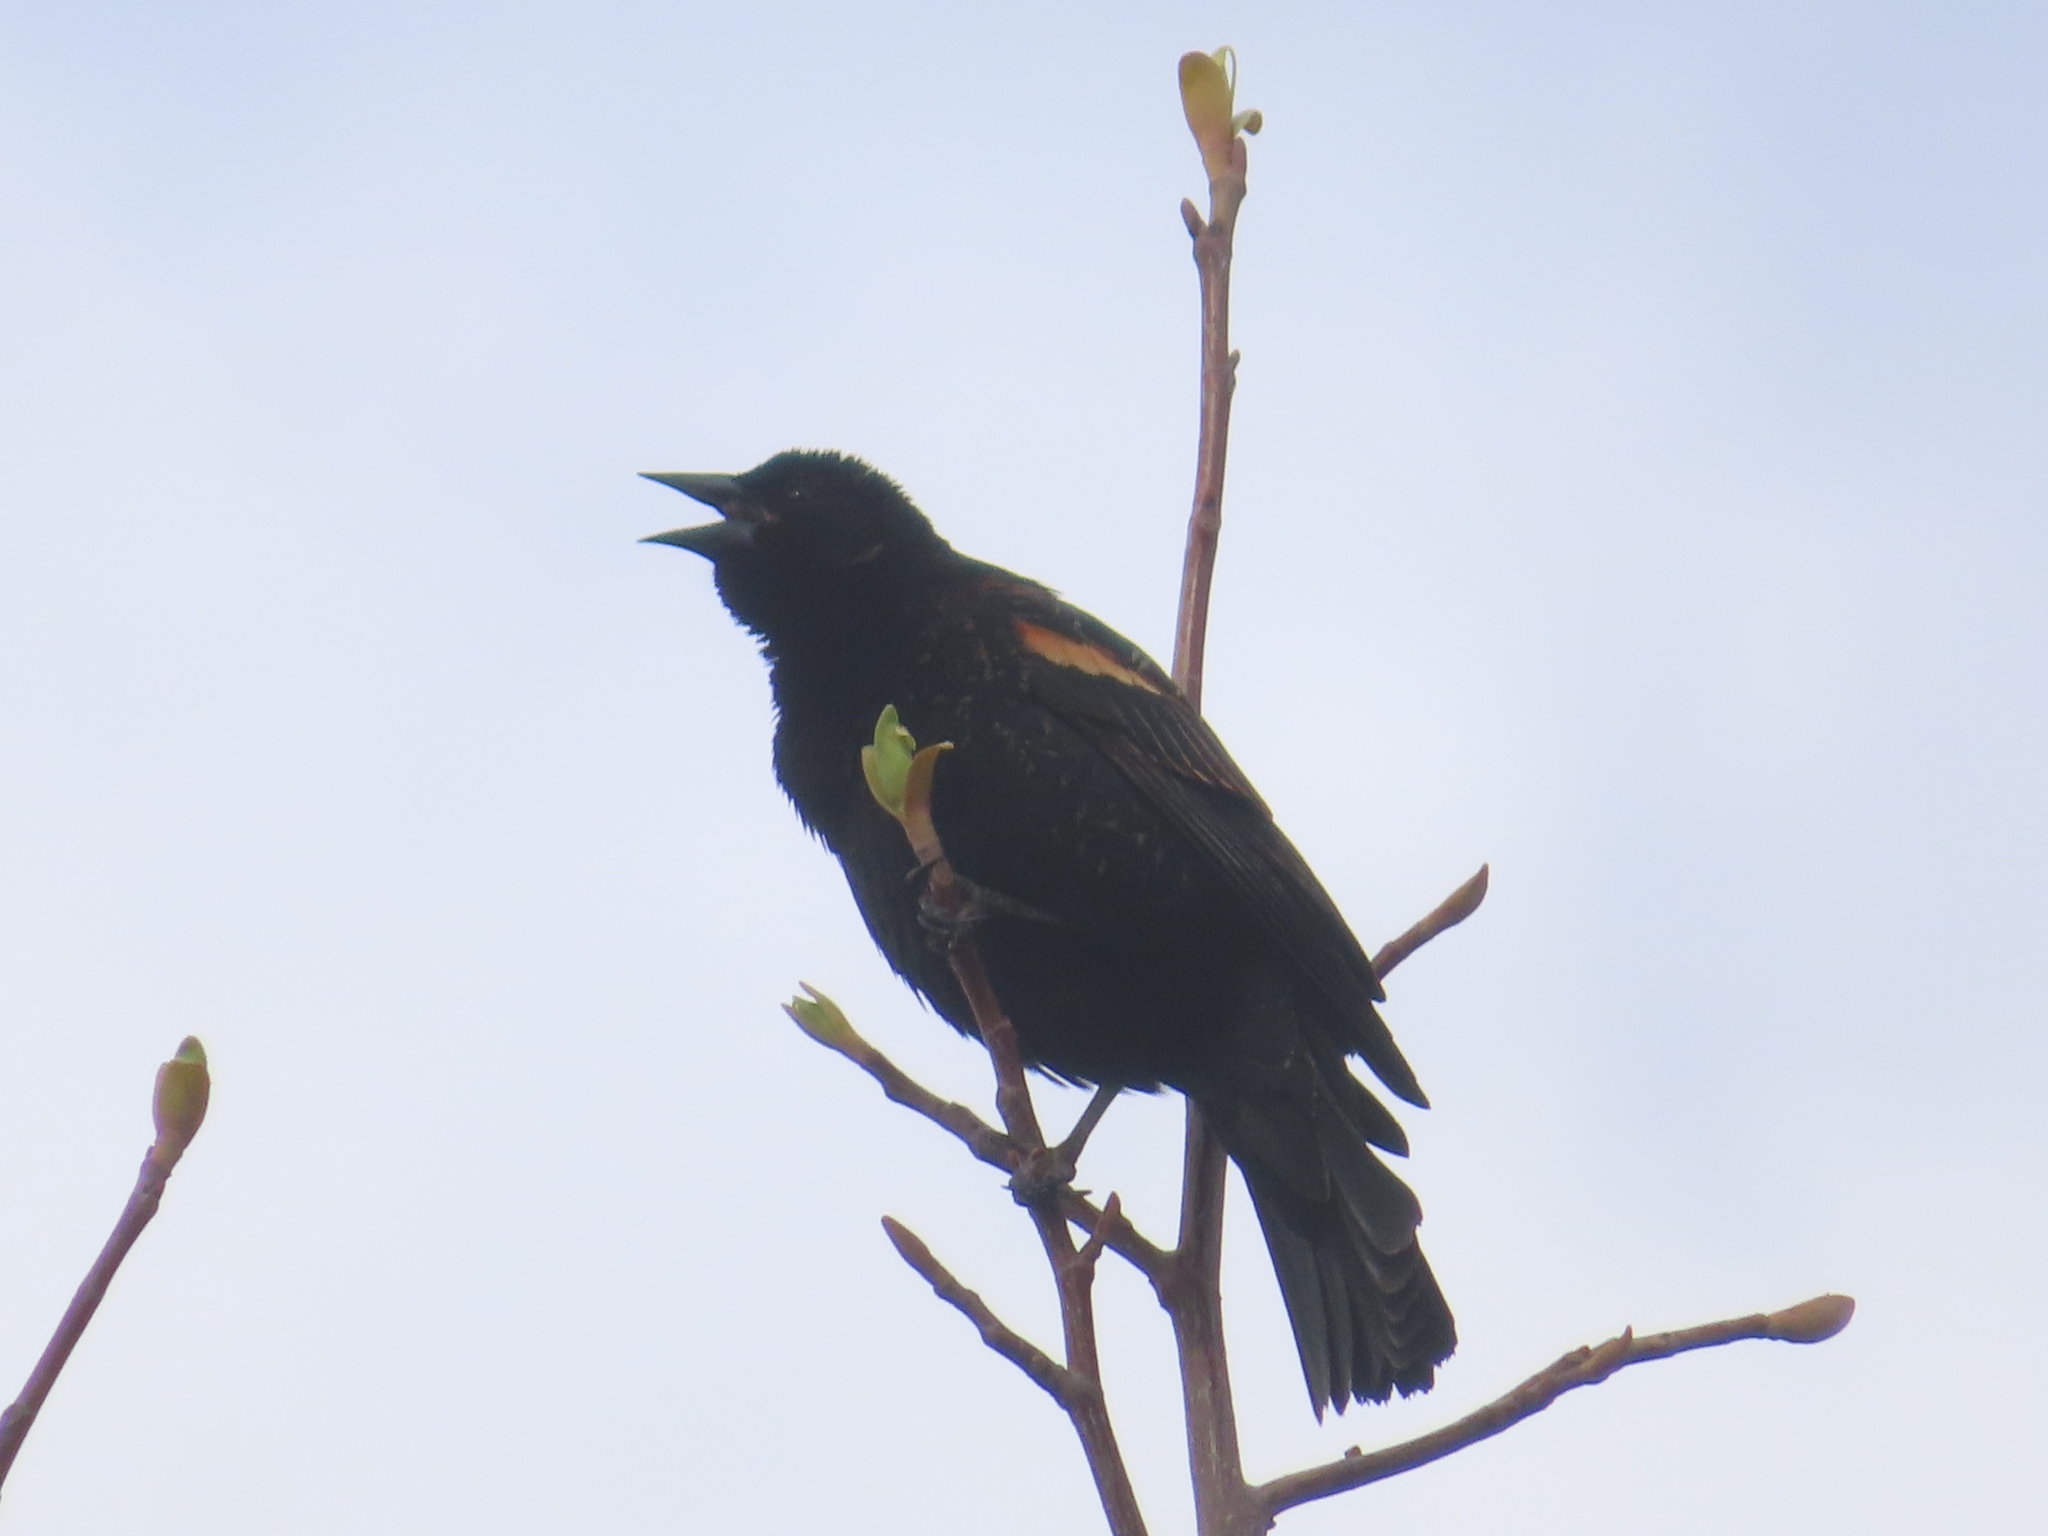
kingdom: Animalia
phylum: Chordata
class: Aves
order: Passeriformes
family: Icteridae
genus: Agelaius
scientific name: Agelaius phoeniceus
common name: Red-winged blackbird
